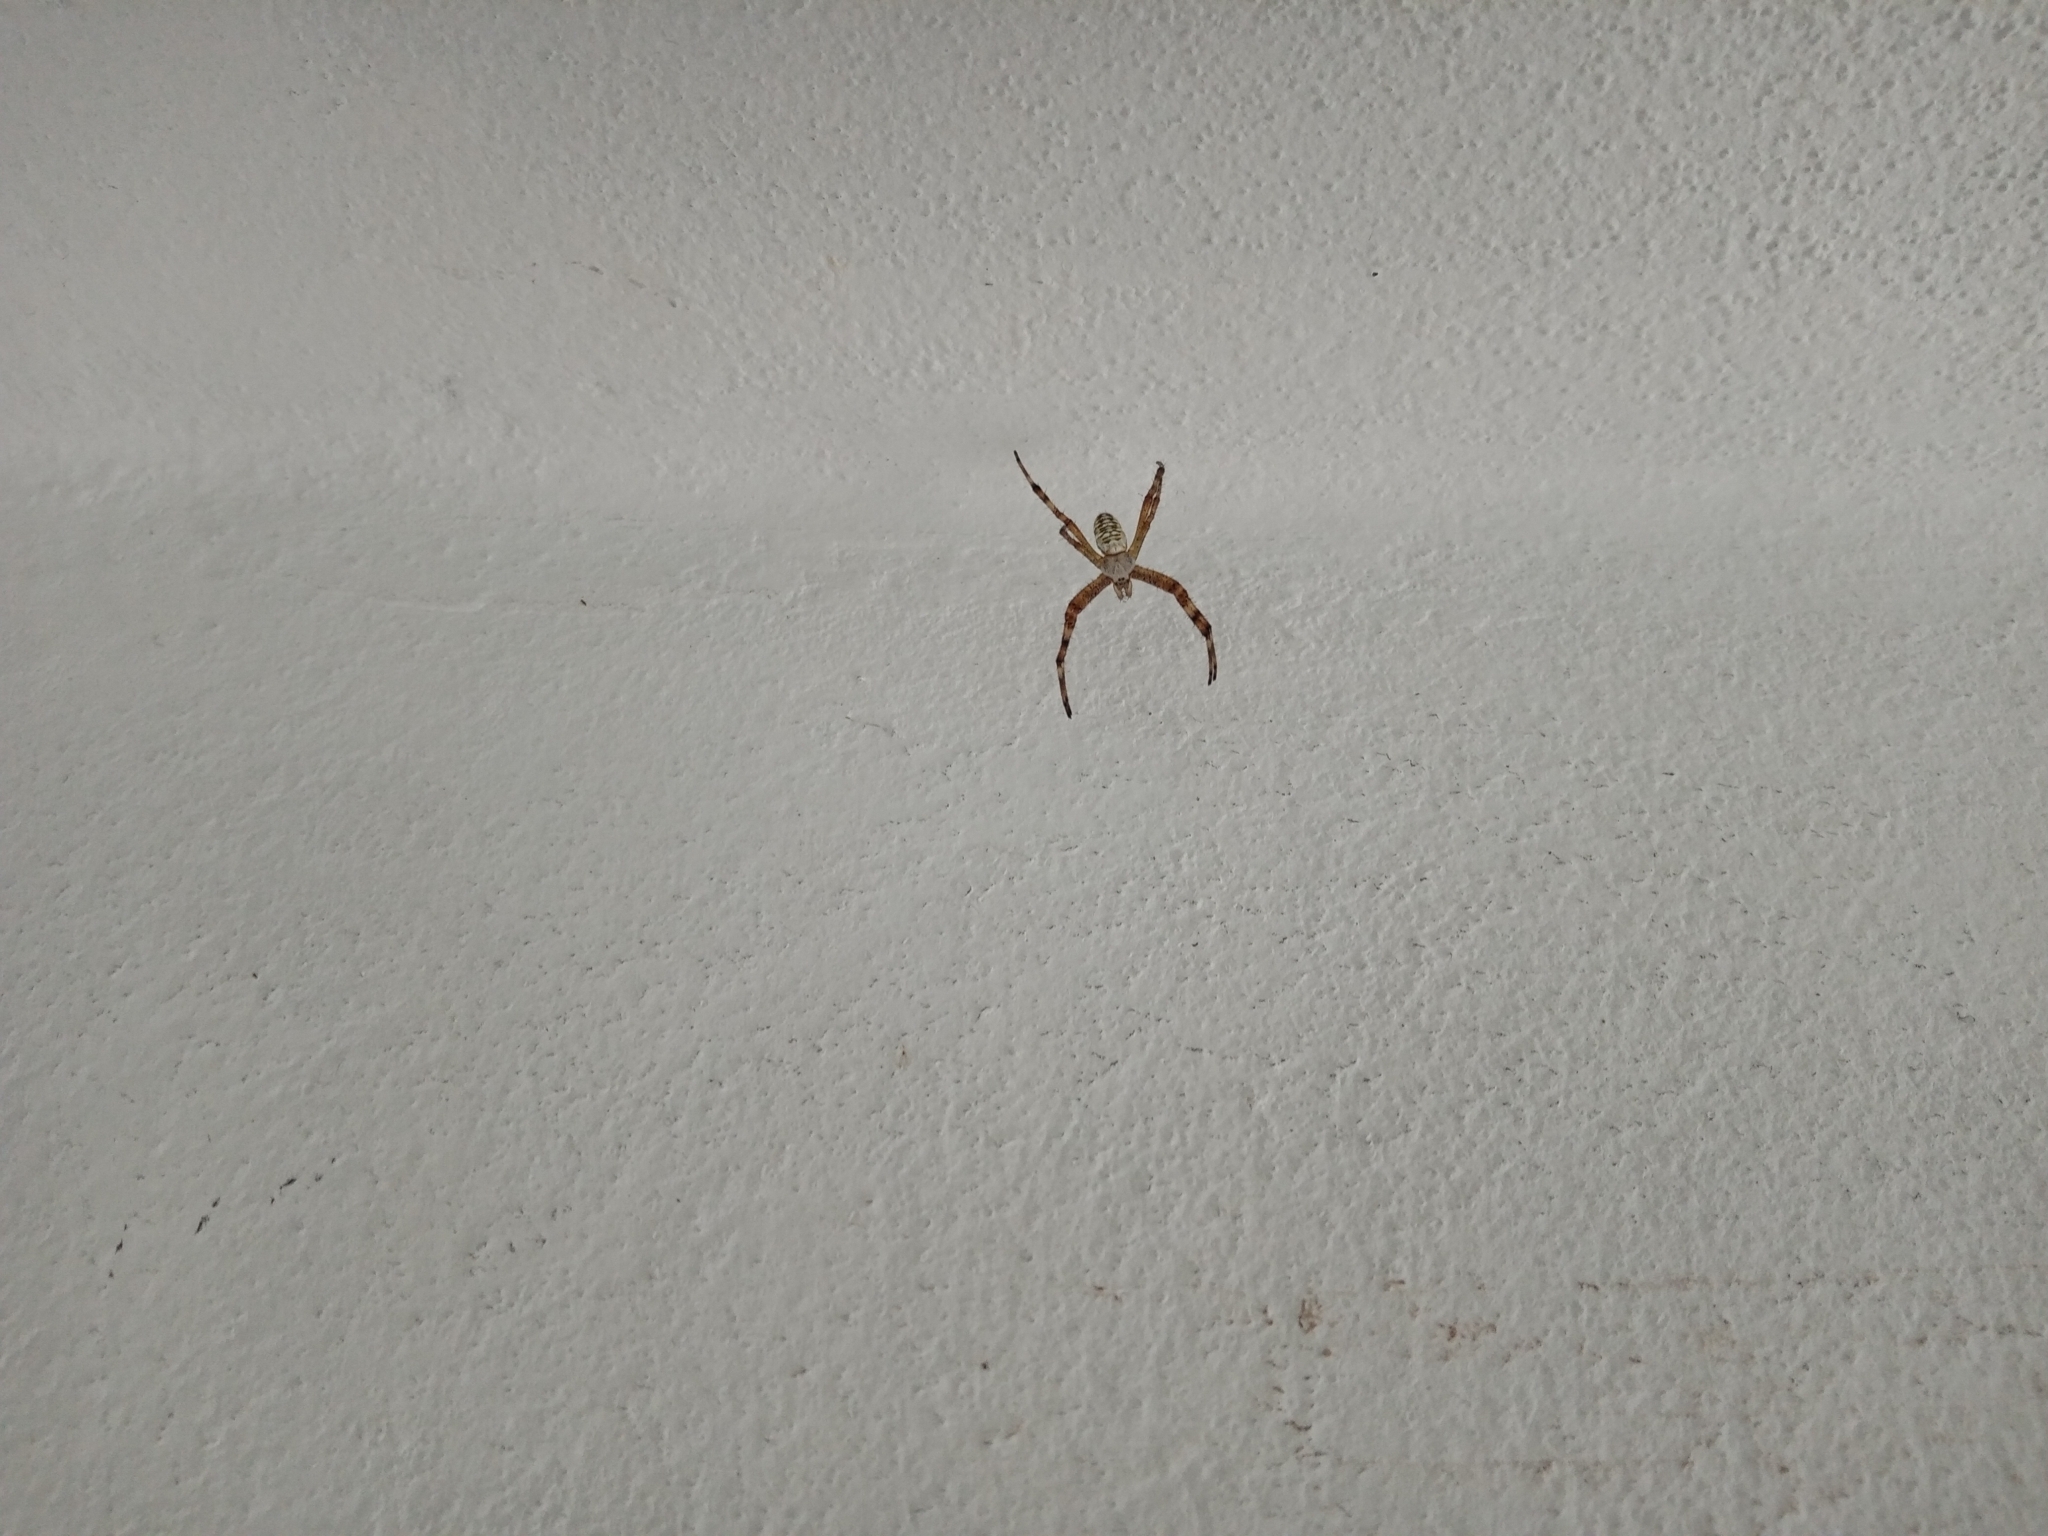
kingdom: Animalia
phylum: Arthropoda
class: Arachnida
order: Araneae
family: Araneidae
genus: Argiope
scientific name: Argiope bruennichi
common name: Wasp spider
